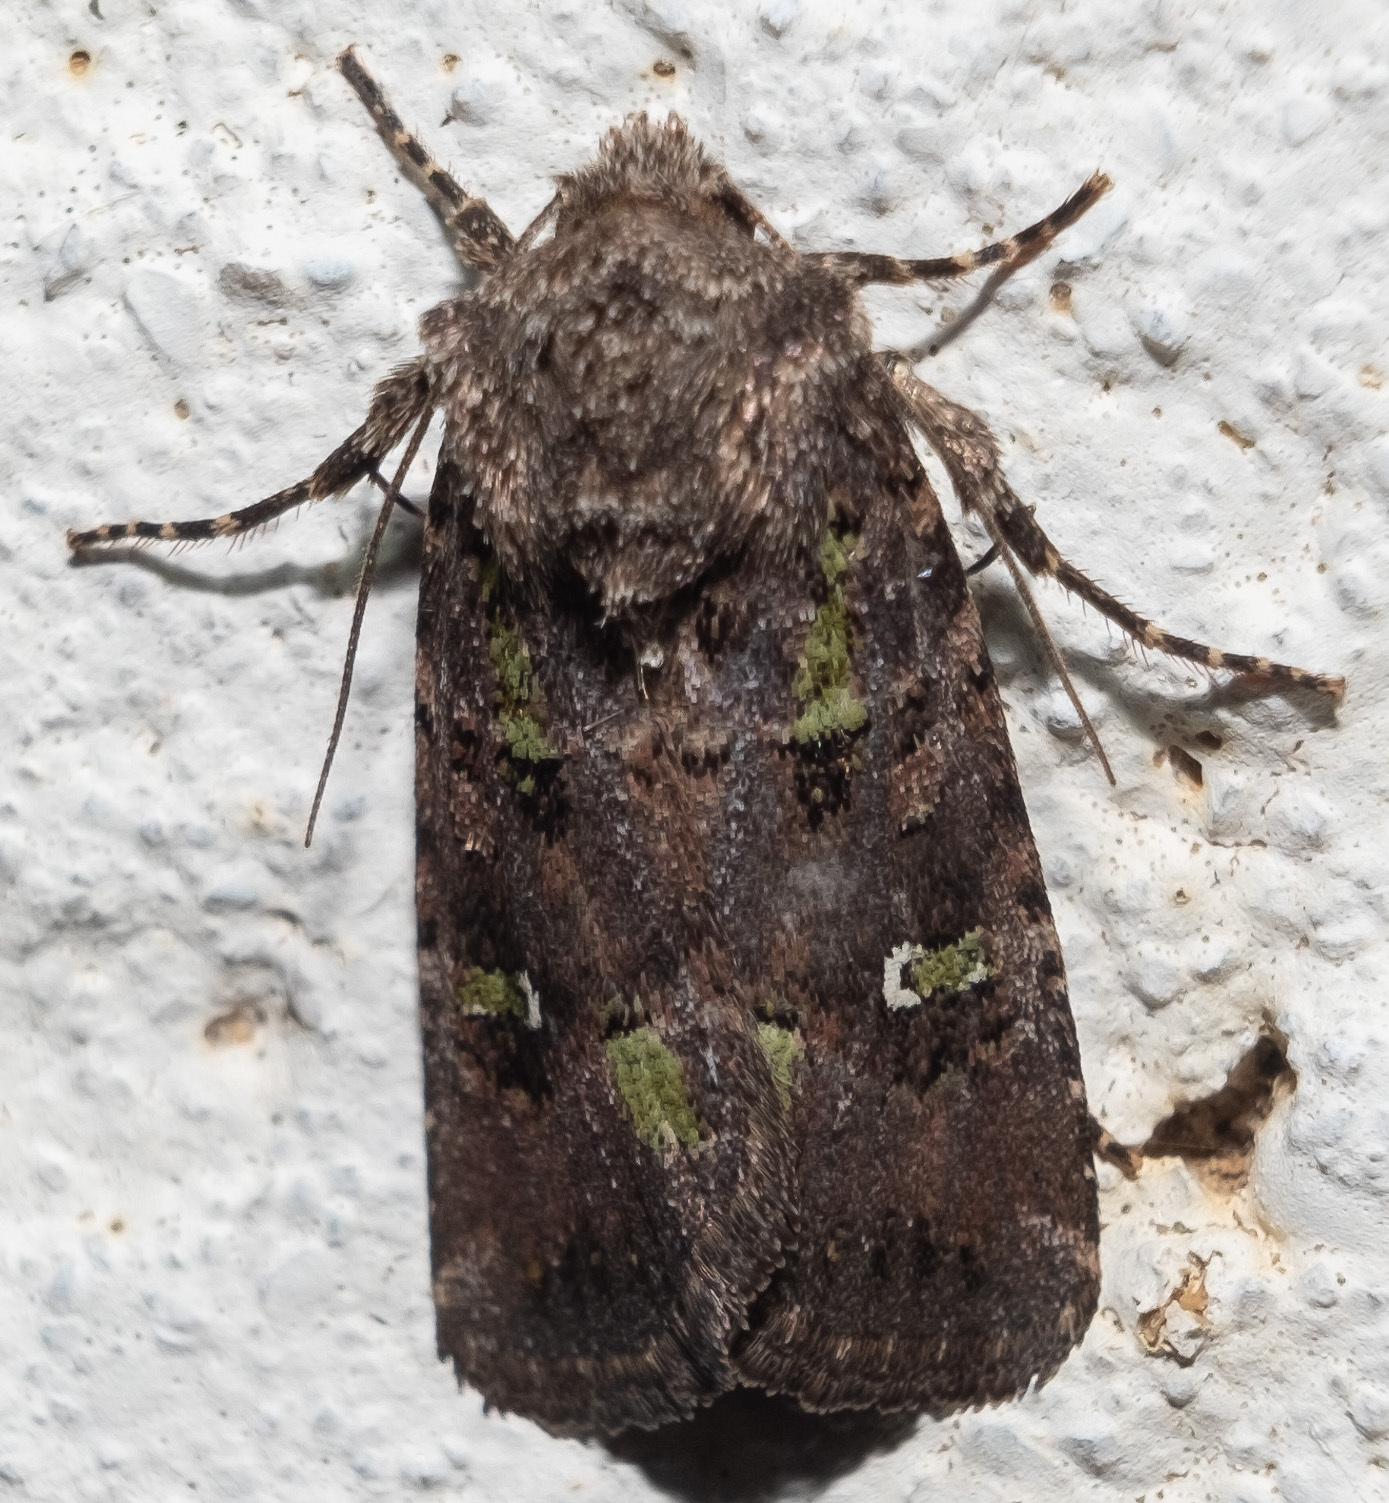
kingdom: Animalia
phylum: Arthropoda
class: Insecta
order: Lepidoptera
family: Noctuidae
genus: Lacinipolia
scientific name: Lacinipolia renigera
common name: Kidney-spotted minor
